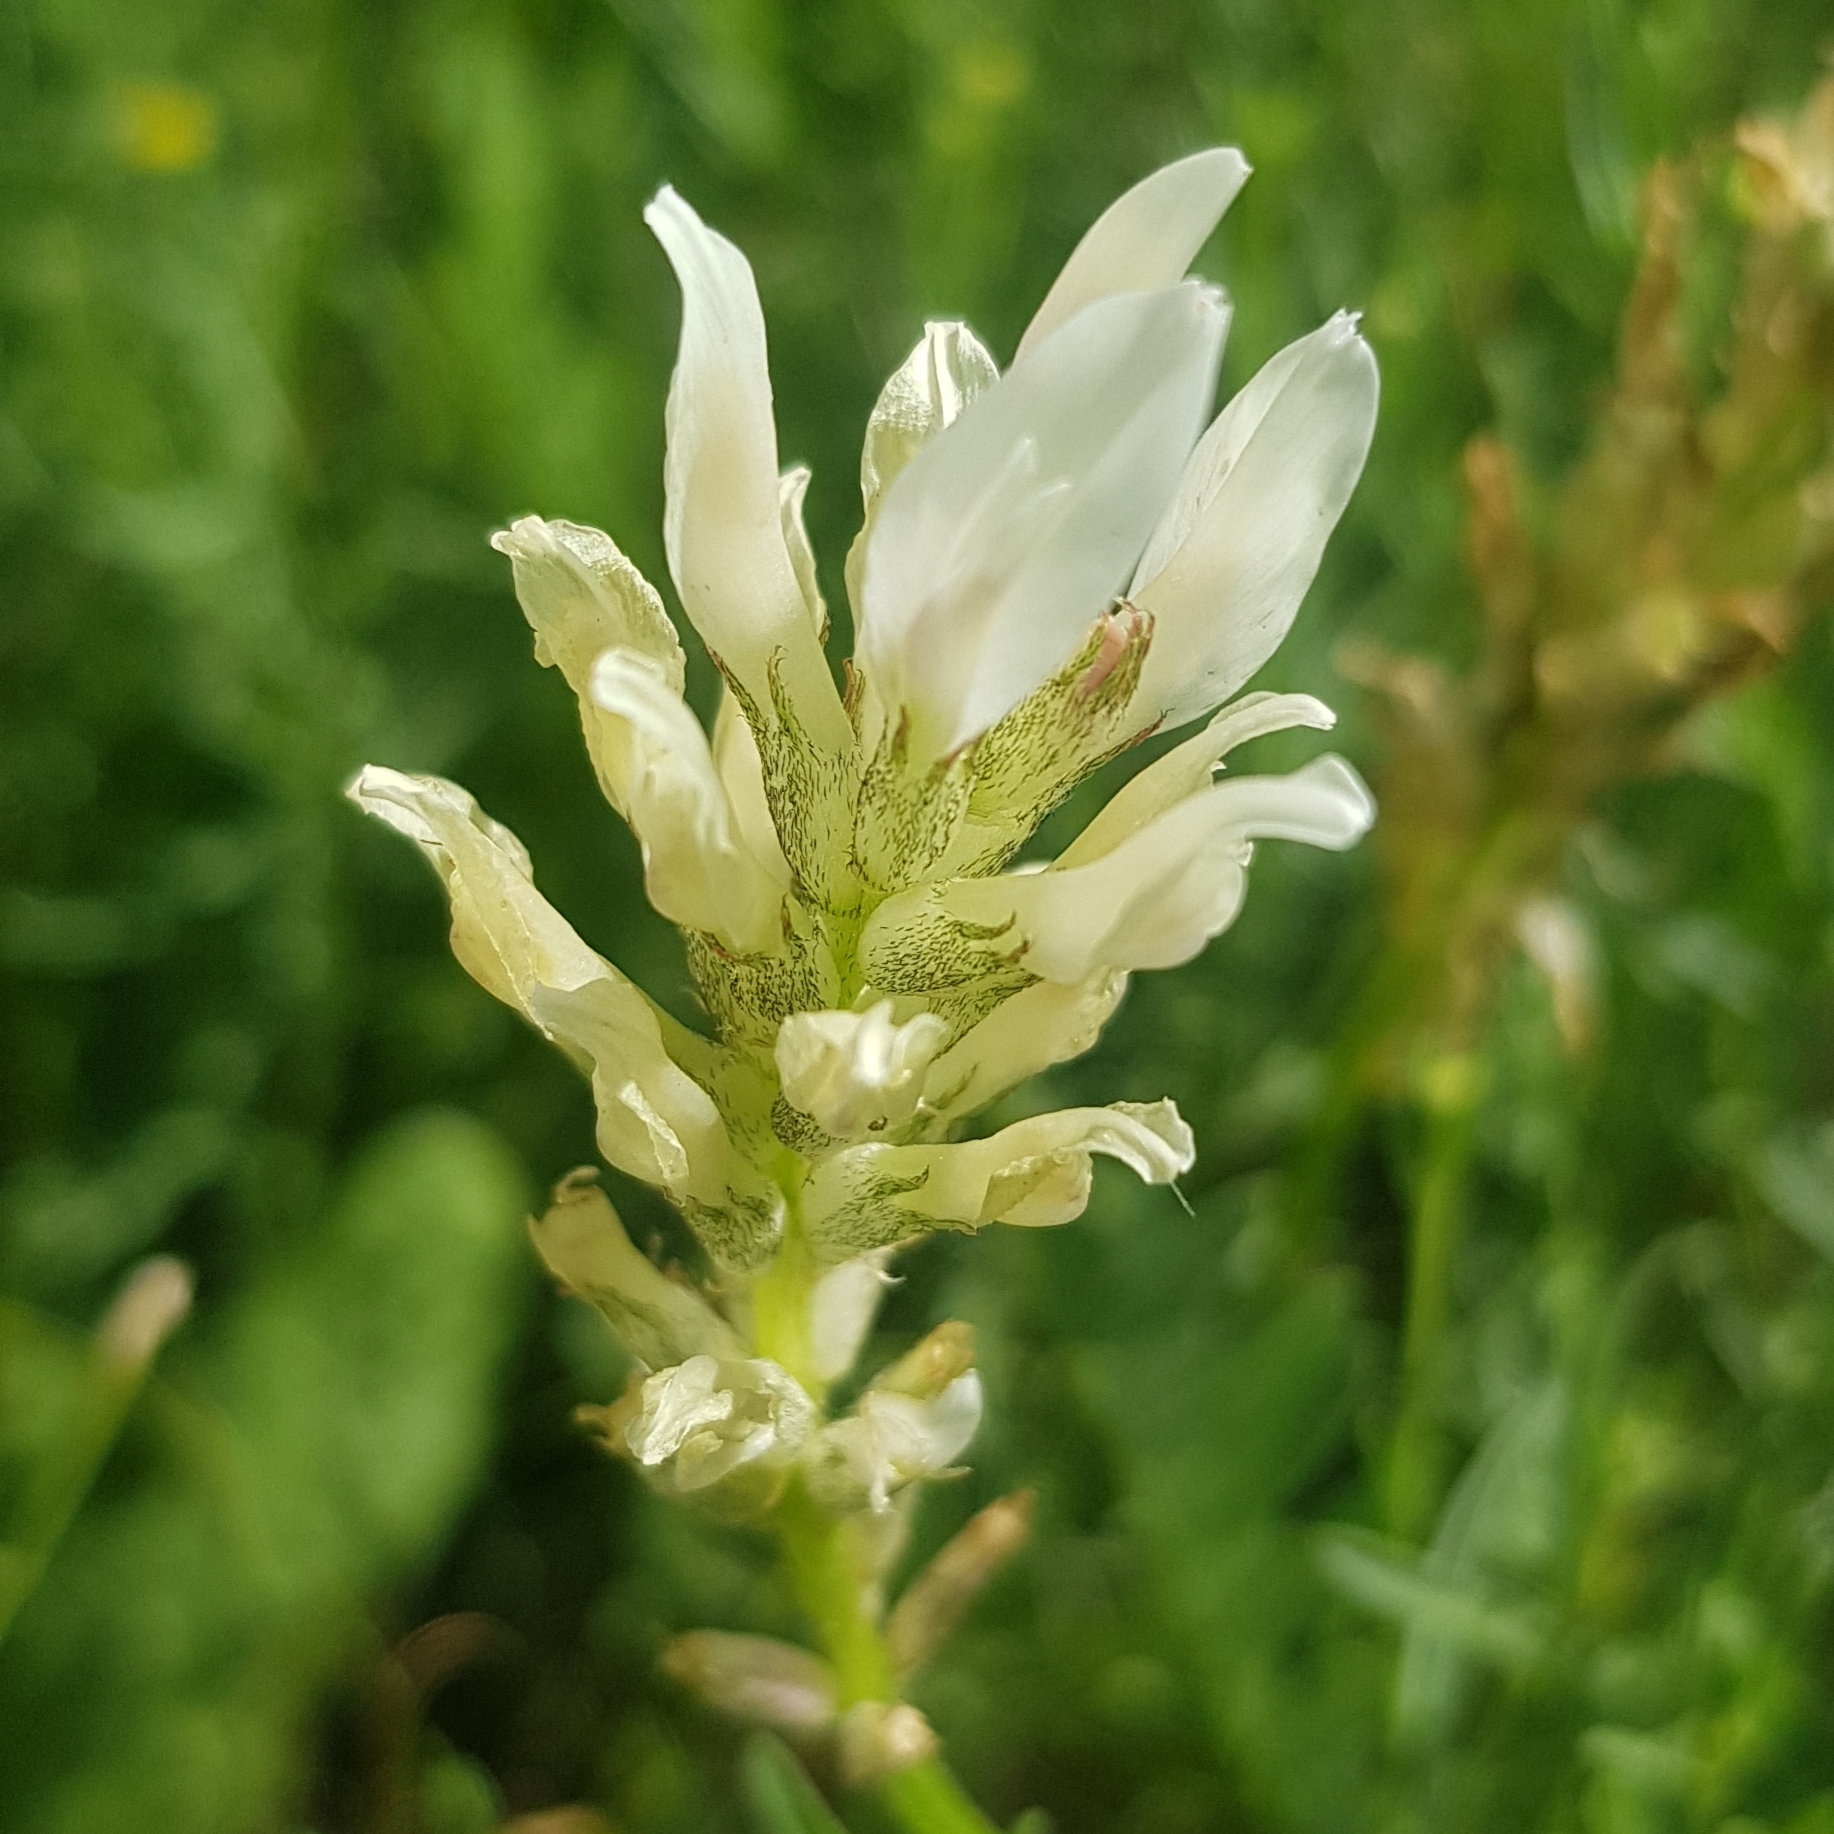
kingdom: Plantae
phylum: Tracheophyta
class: Magnoliopsida
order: Fabales
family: Fabaceae
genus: Astragalus
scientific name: Astragalus laxmannii
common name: Laxmann's milk-vetch
